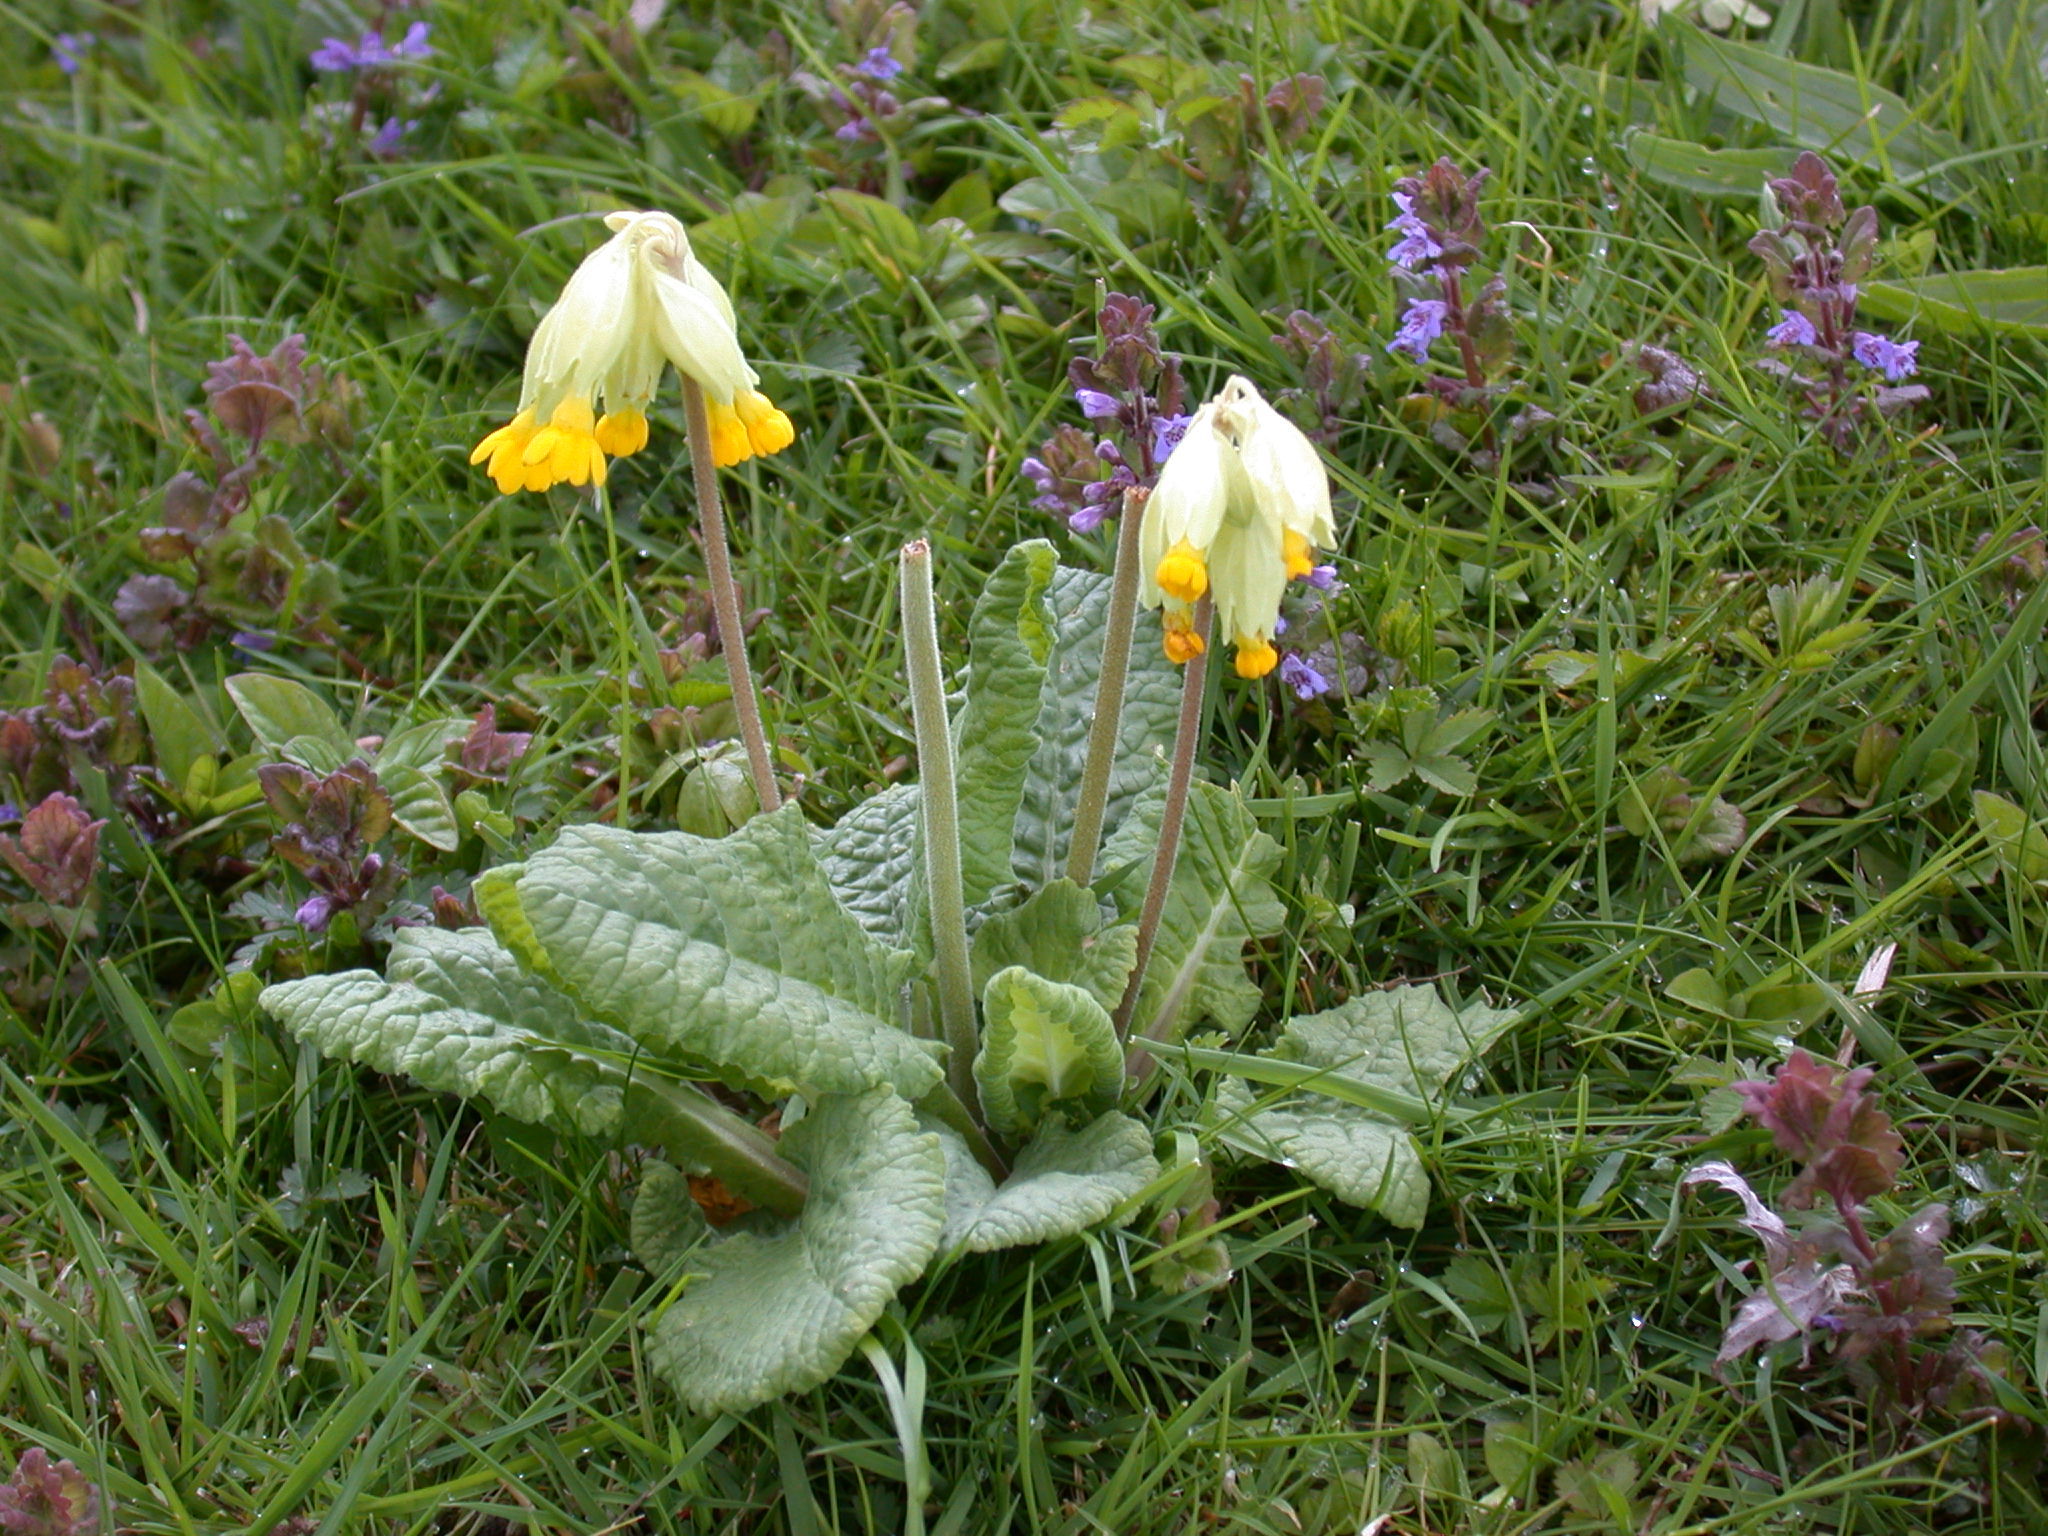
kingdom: Plantae
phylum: Tracheophyta
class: Magnoliopsida
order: Ericales
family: Primulaceae
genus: Primula
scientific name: Primula veris
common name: Cowslip
